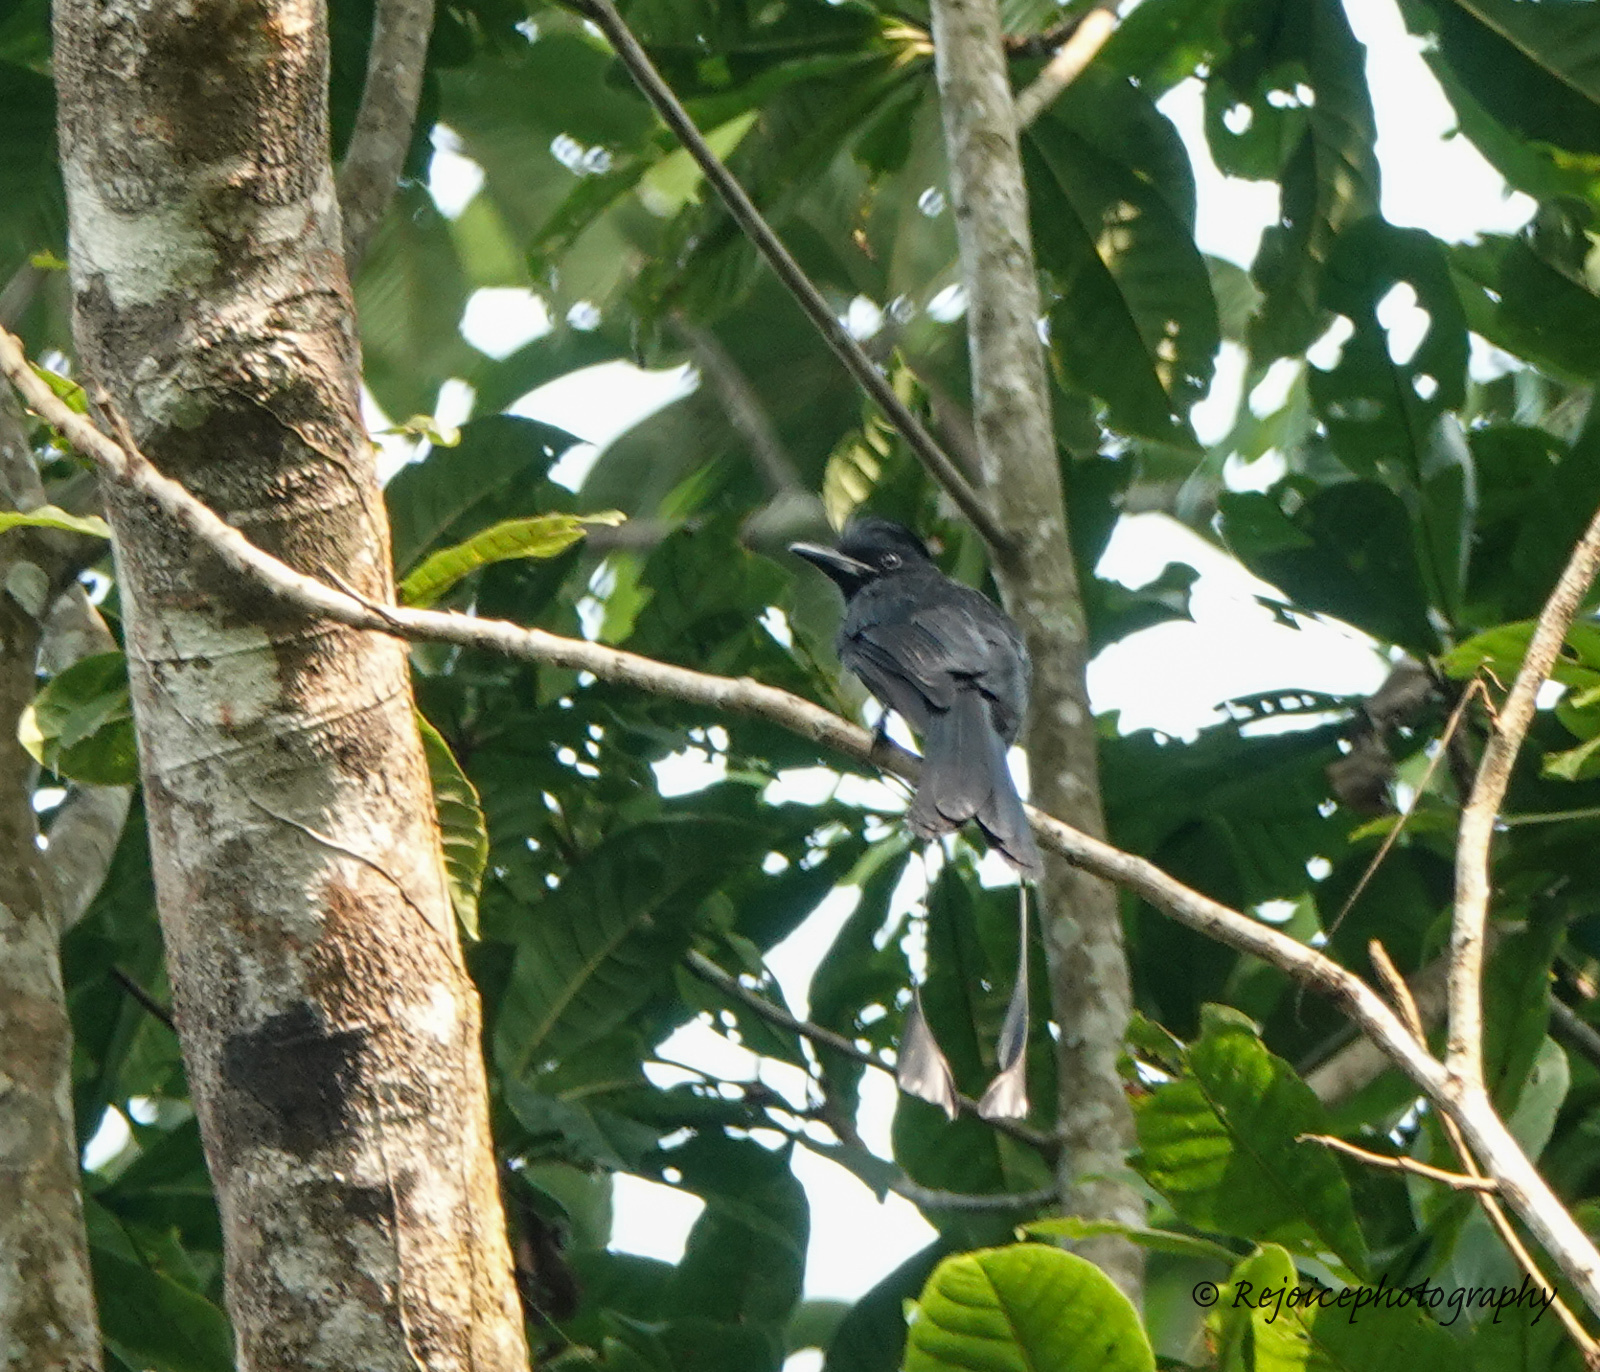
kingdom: Animalia
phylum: Chordata
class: Aves
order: Passeriformes
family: Dicruridae
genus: Dicrurus
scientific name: Dicrurus paradiseus
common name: Greater racket-tailed drongo
